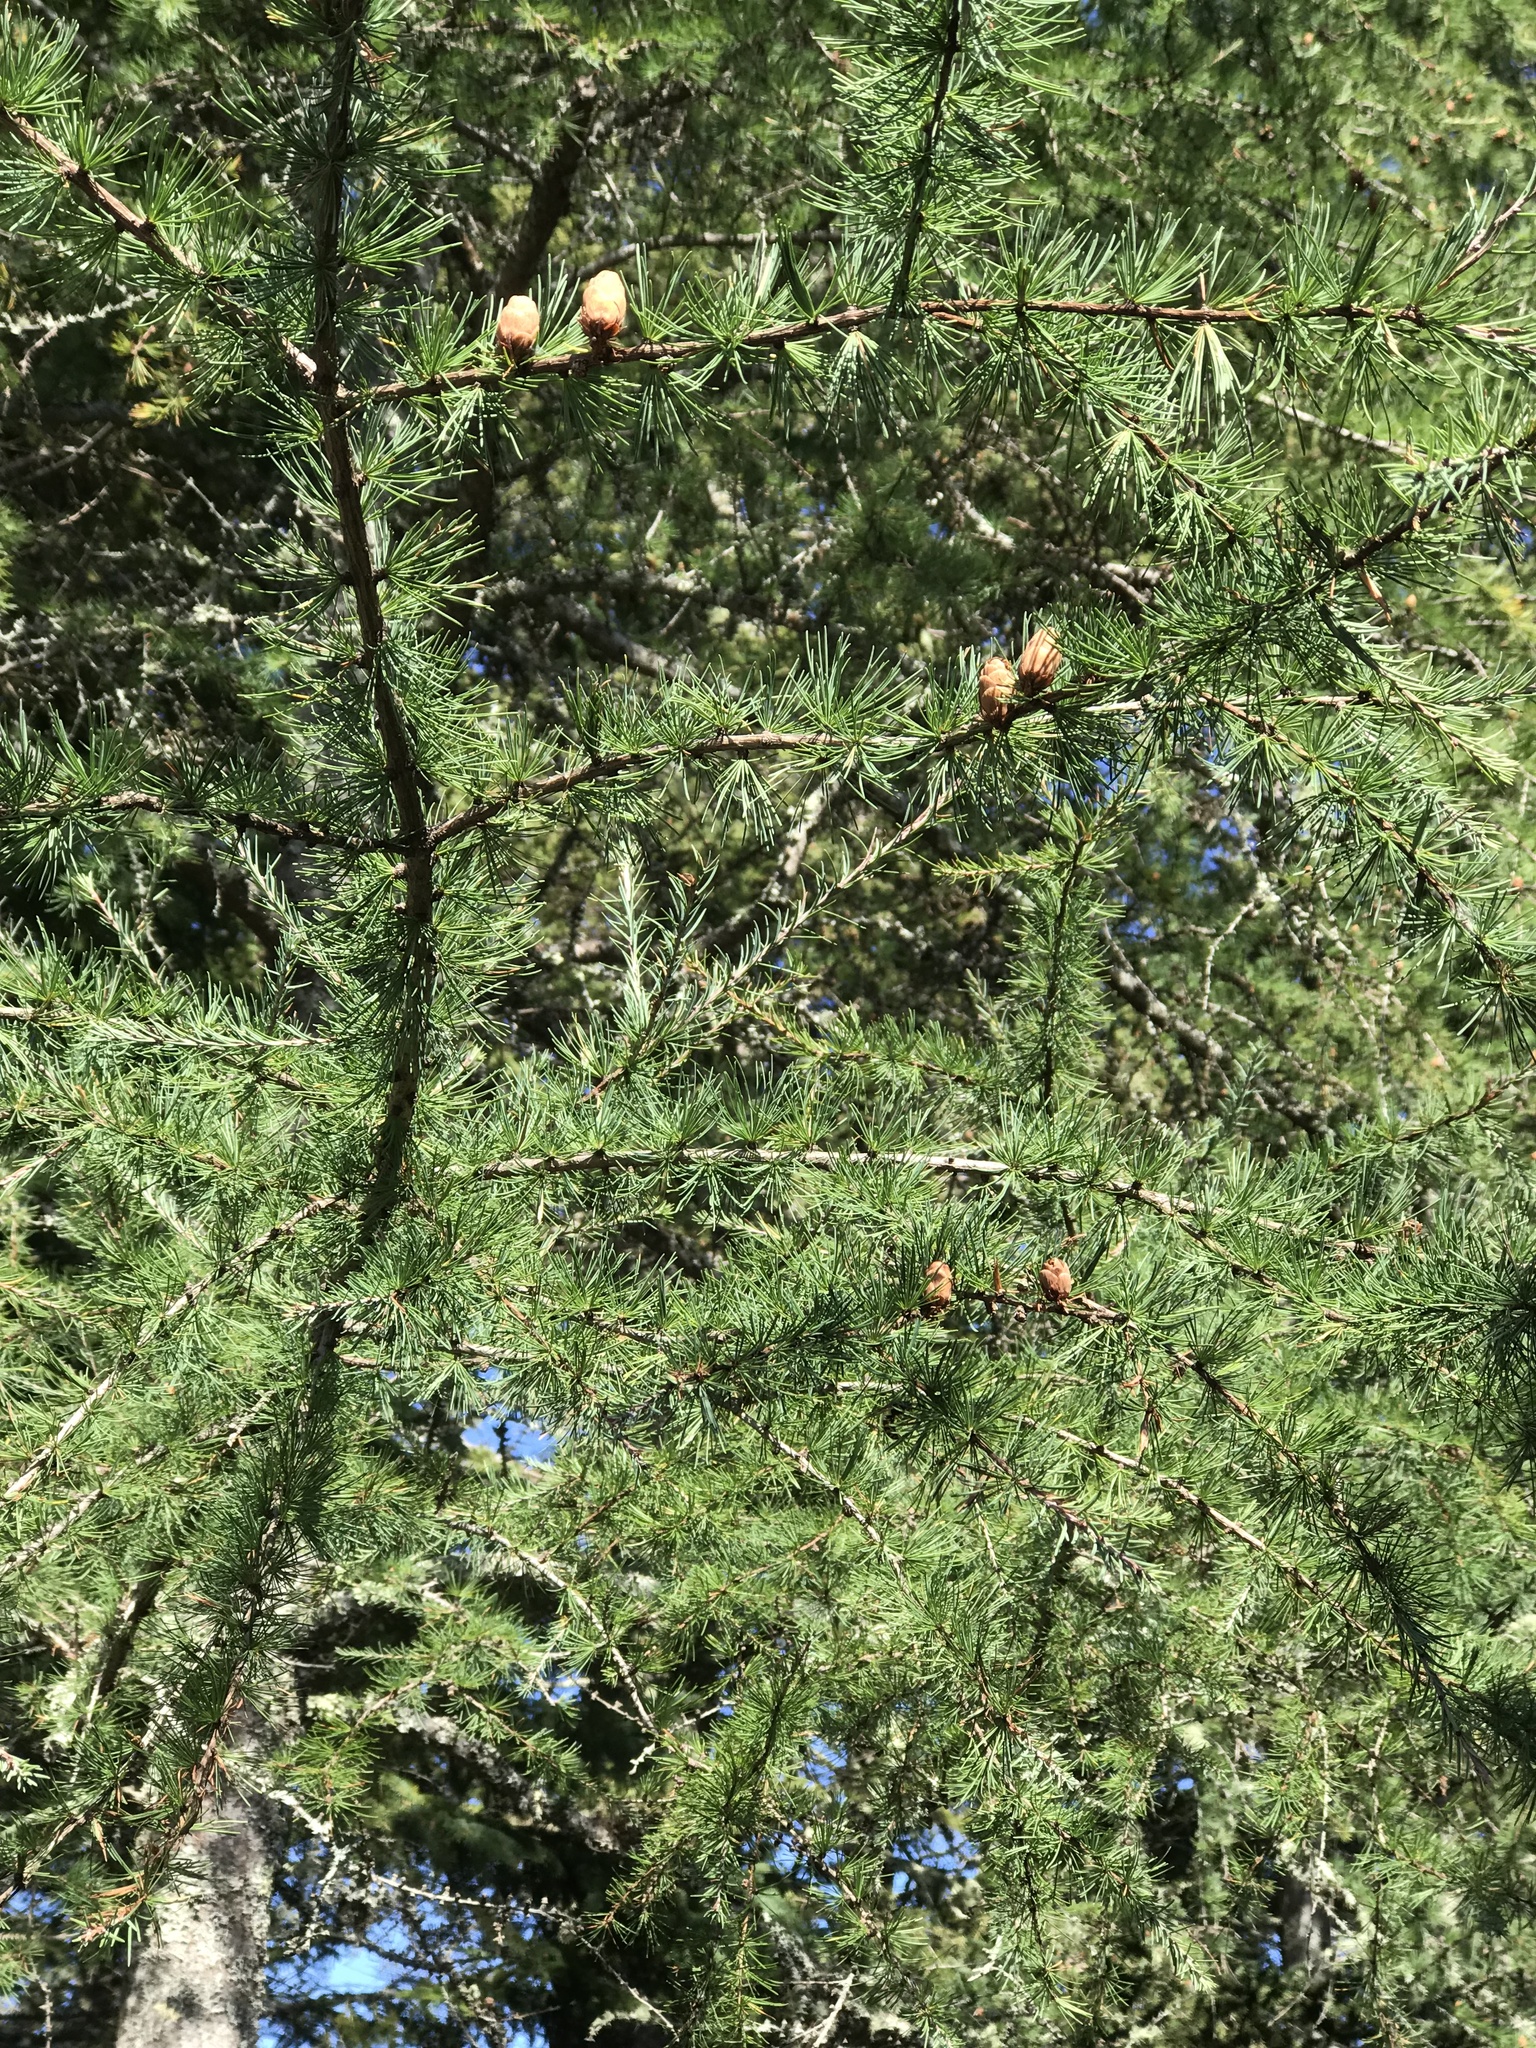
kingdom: Plantae
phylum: Tracheophyta
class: Pinopsida
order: Pinales
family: Pinaceae
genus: Larix
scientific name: Larix laricina
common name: American larch
